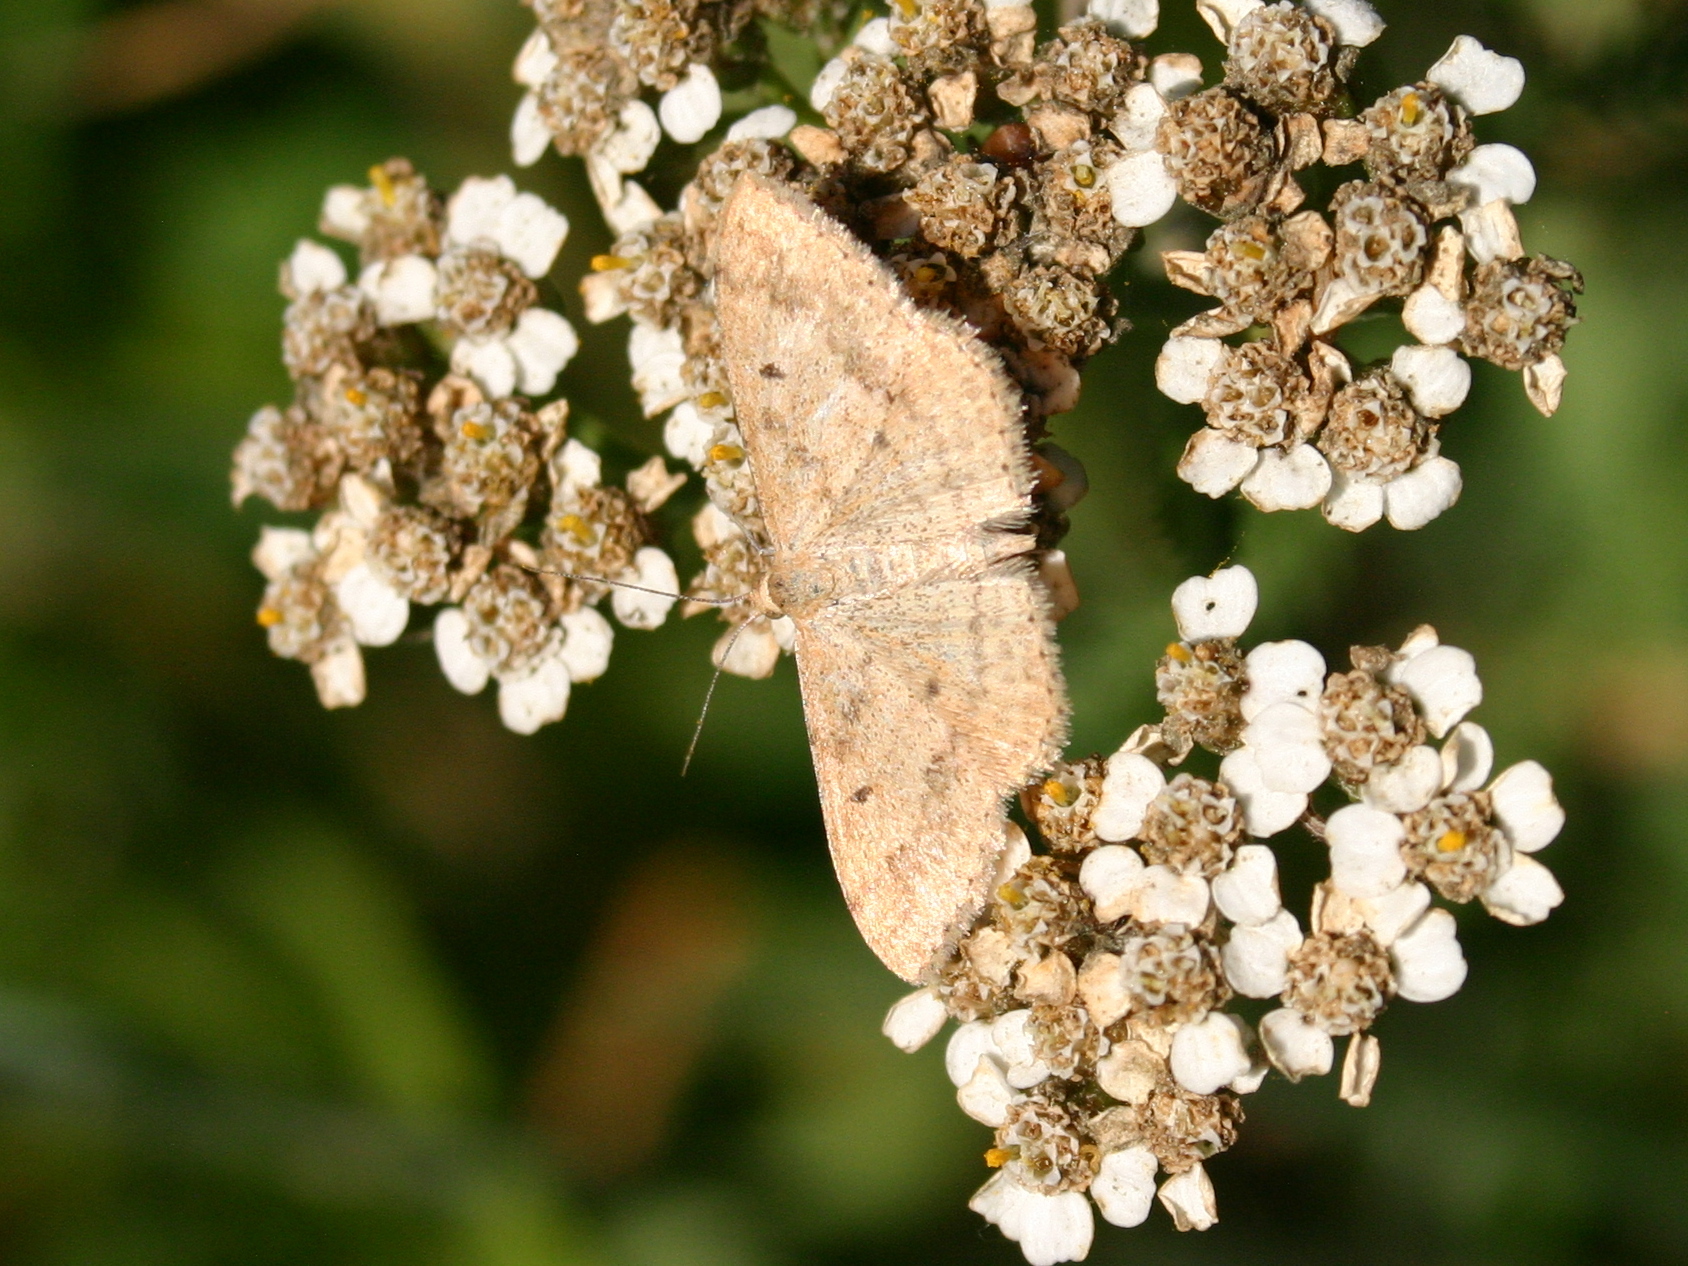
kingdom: Animalia
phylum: Arthropoda
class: Insecta
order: Lepidoptera
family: Geometridae
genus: Scopula
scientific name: Scopula rubraria
